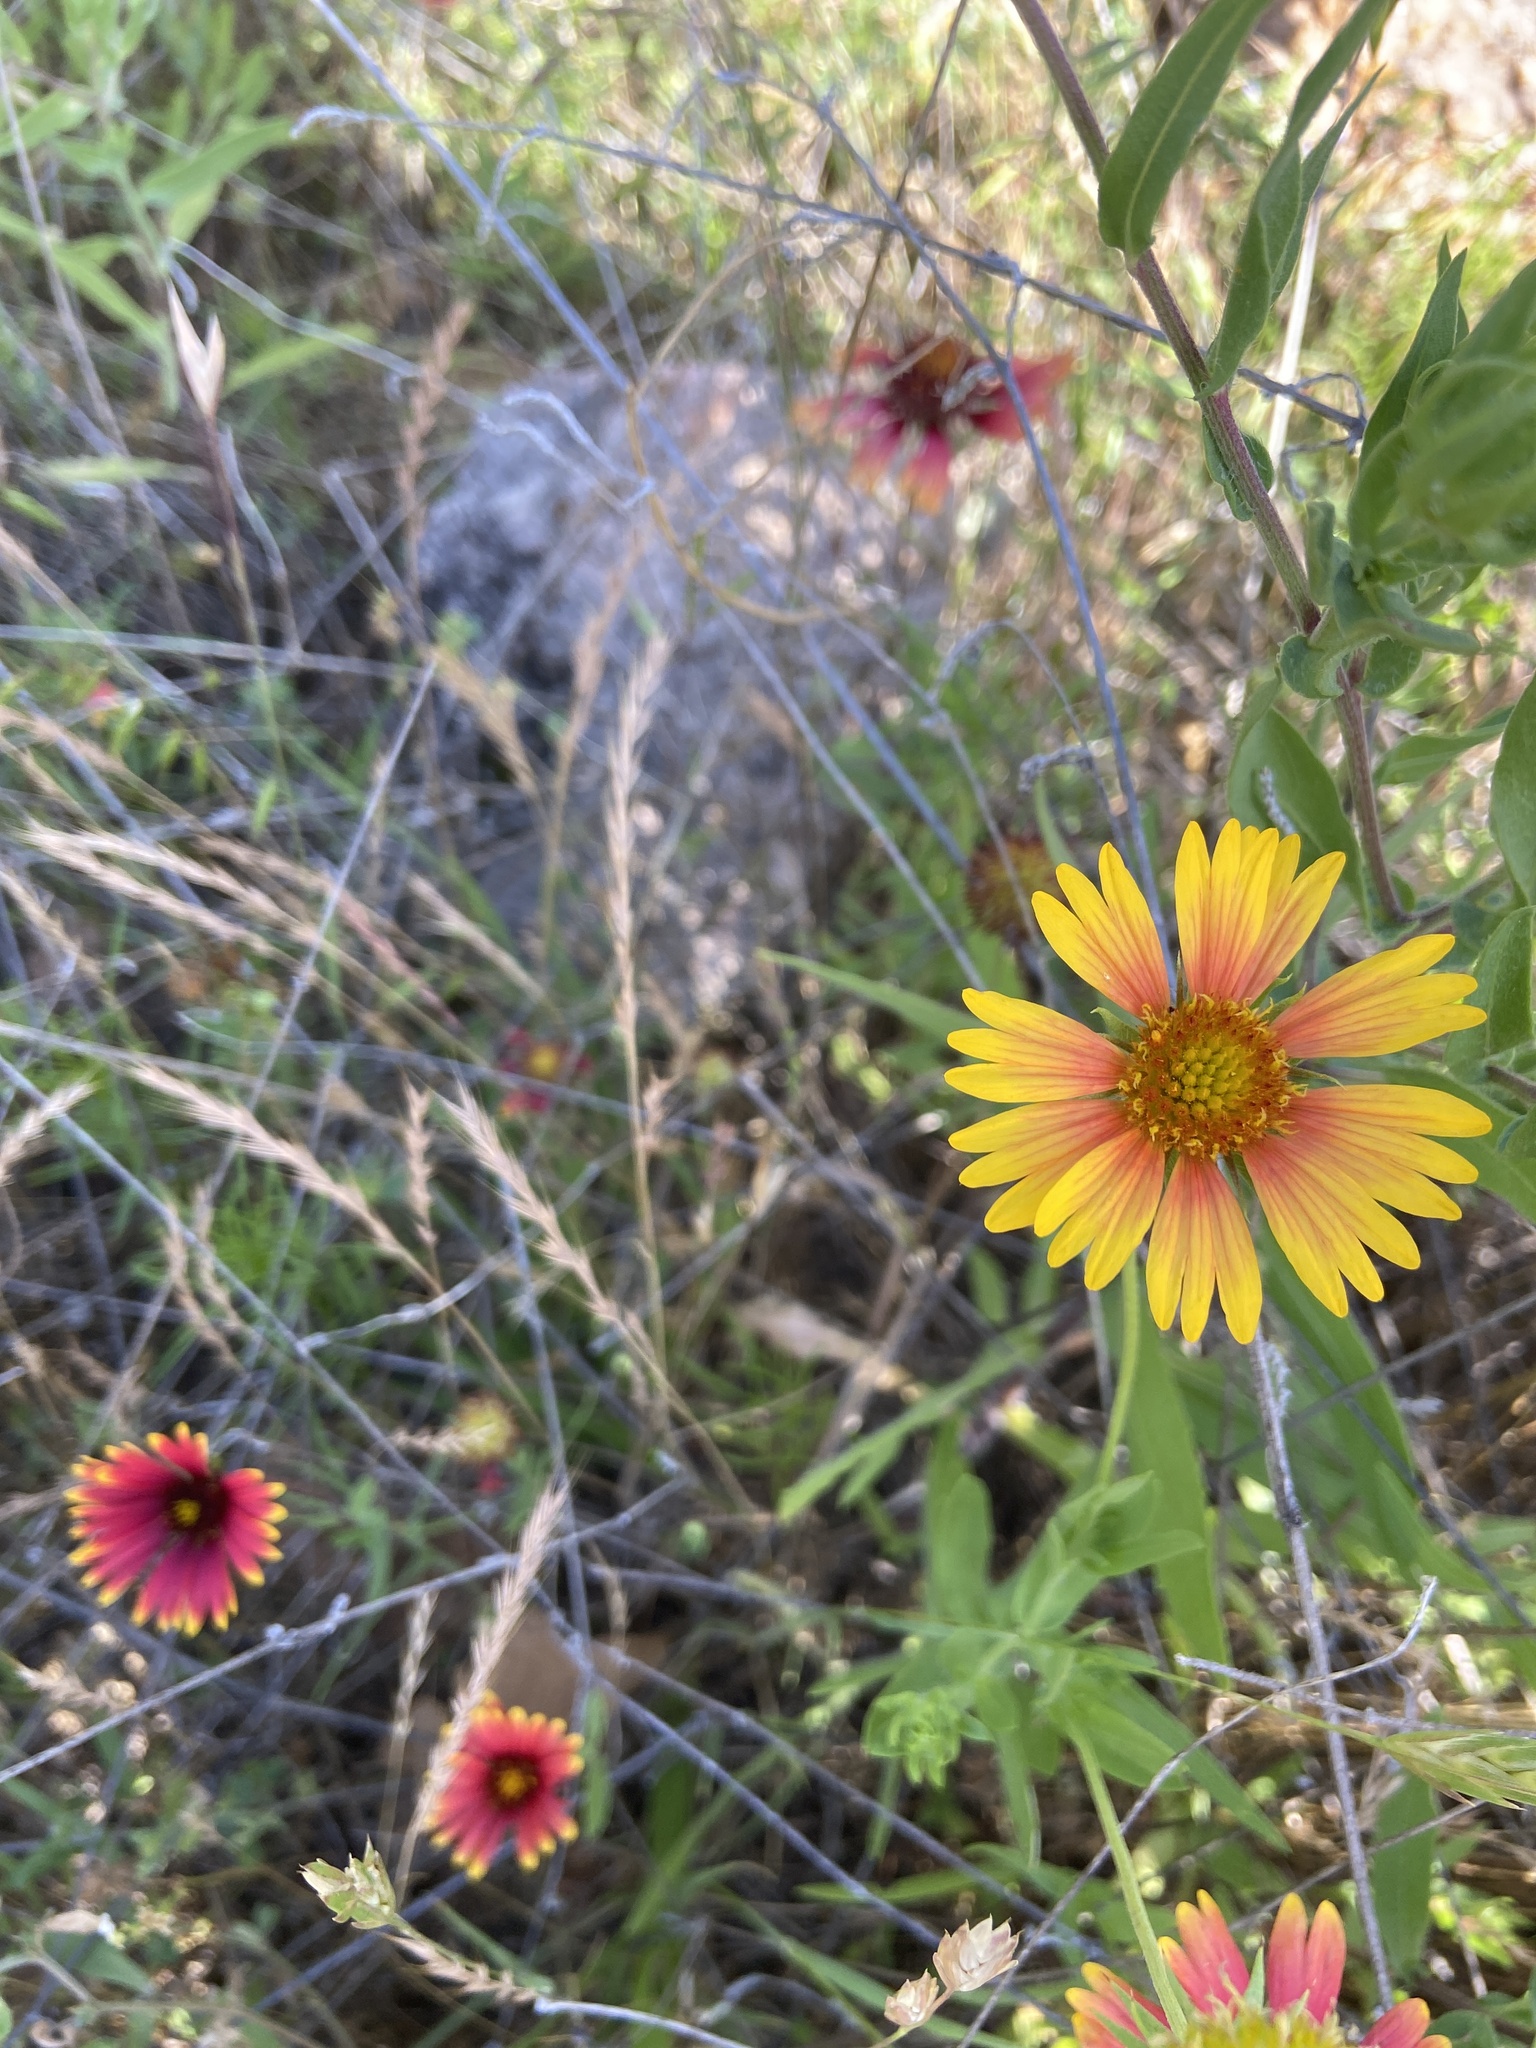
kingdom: Plantae
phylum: Tracheophyta
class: Magnoliopsida
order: Asterales
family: Asteraceae
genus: Gaillardia
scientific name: Gaillardia pulchella
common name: Firewheel
